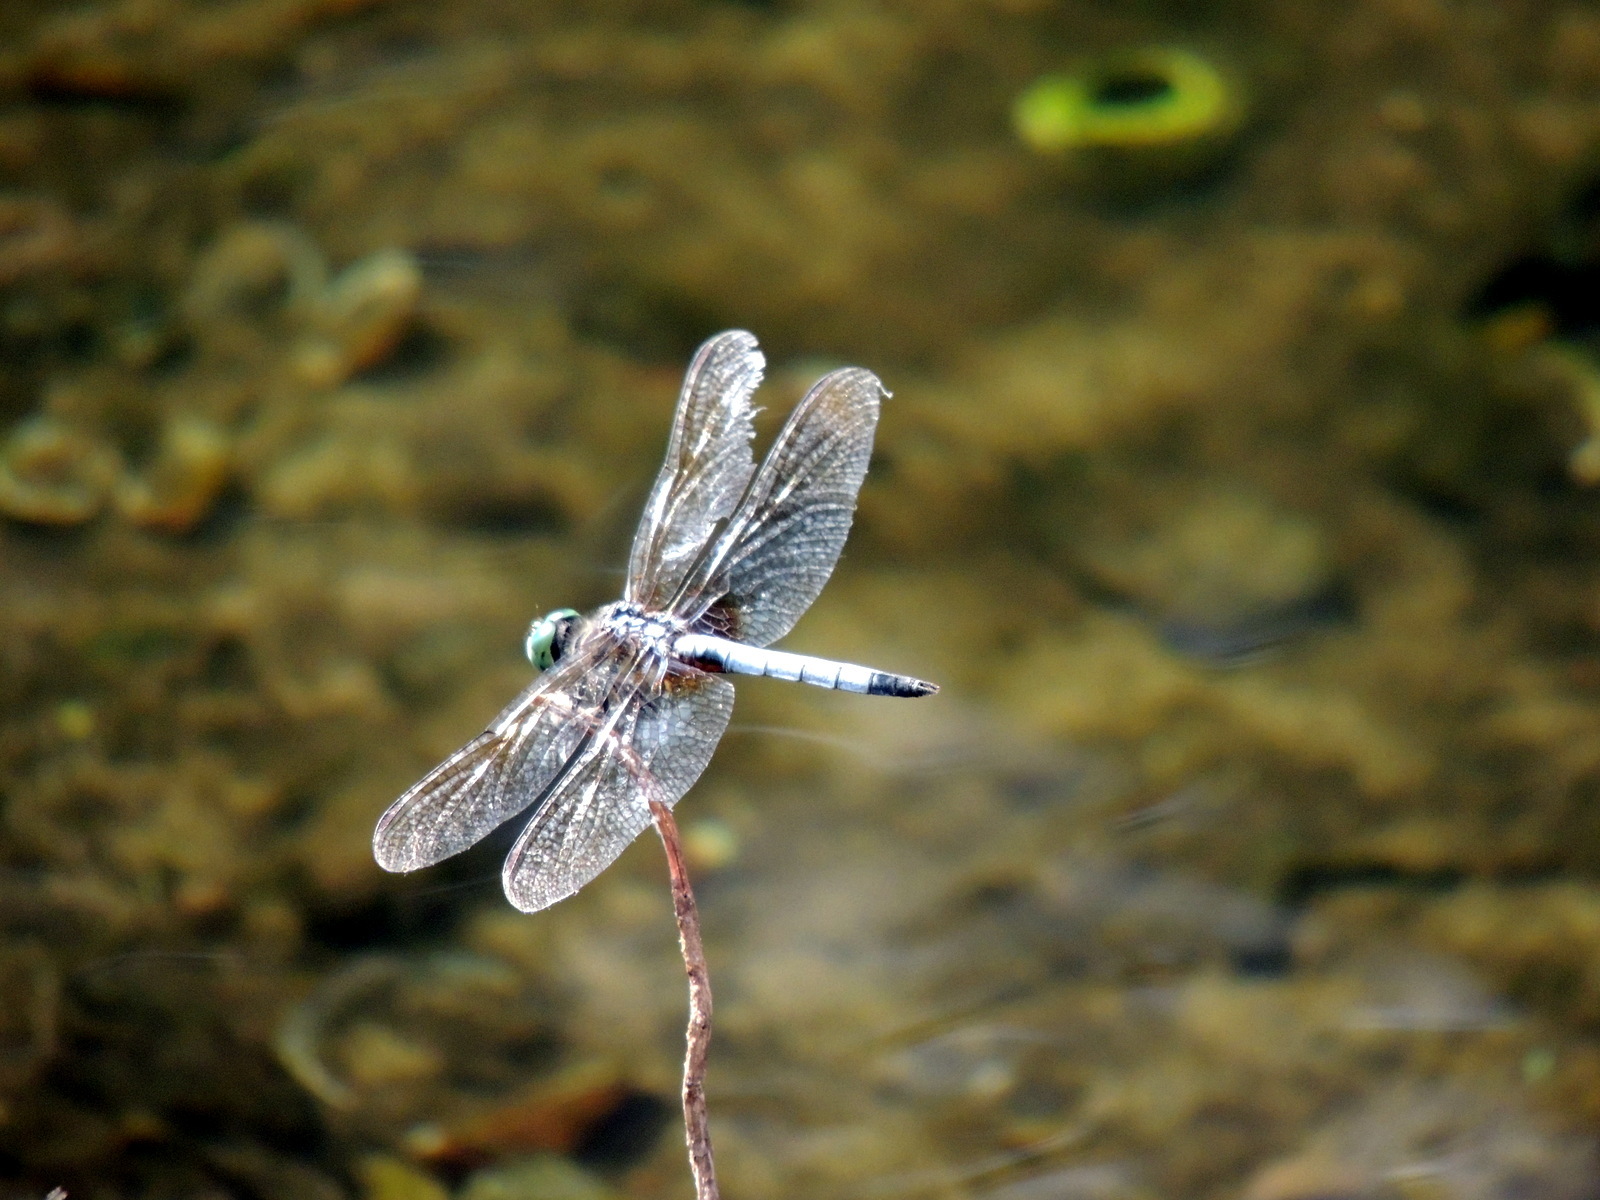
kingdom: Animalia
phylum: Arthropoda
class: Insecta
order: Odonata
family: Libellulidae
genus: Pachydiplax
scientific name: Pachydiplax longipennis
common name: Blue dasher
